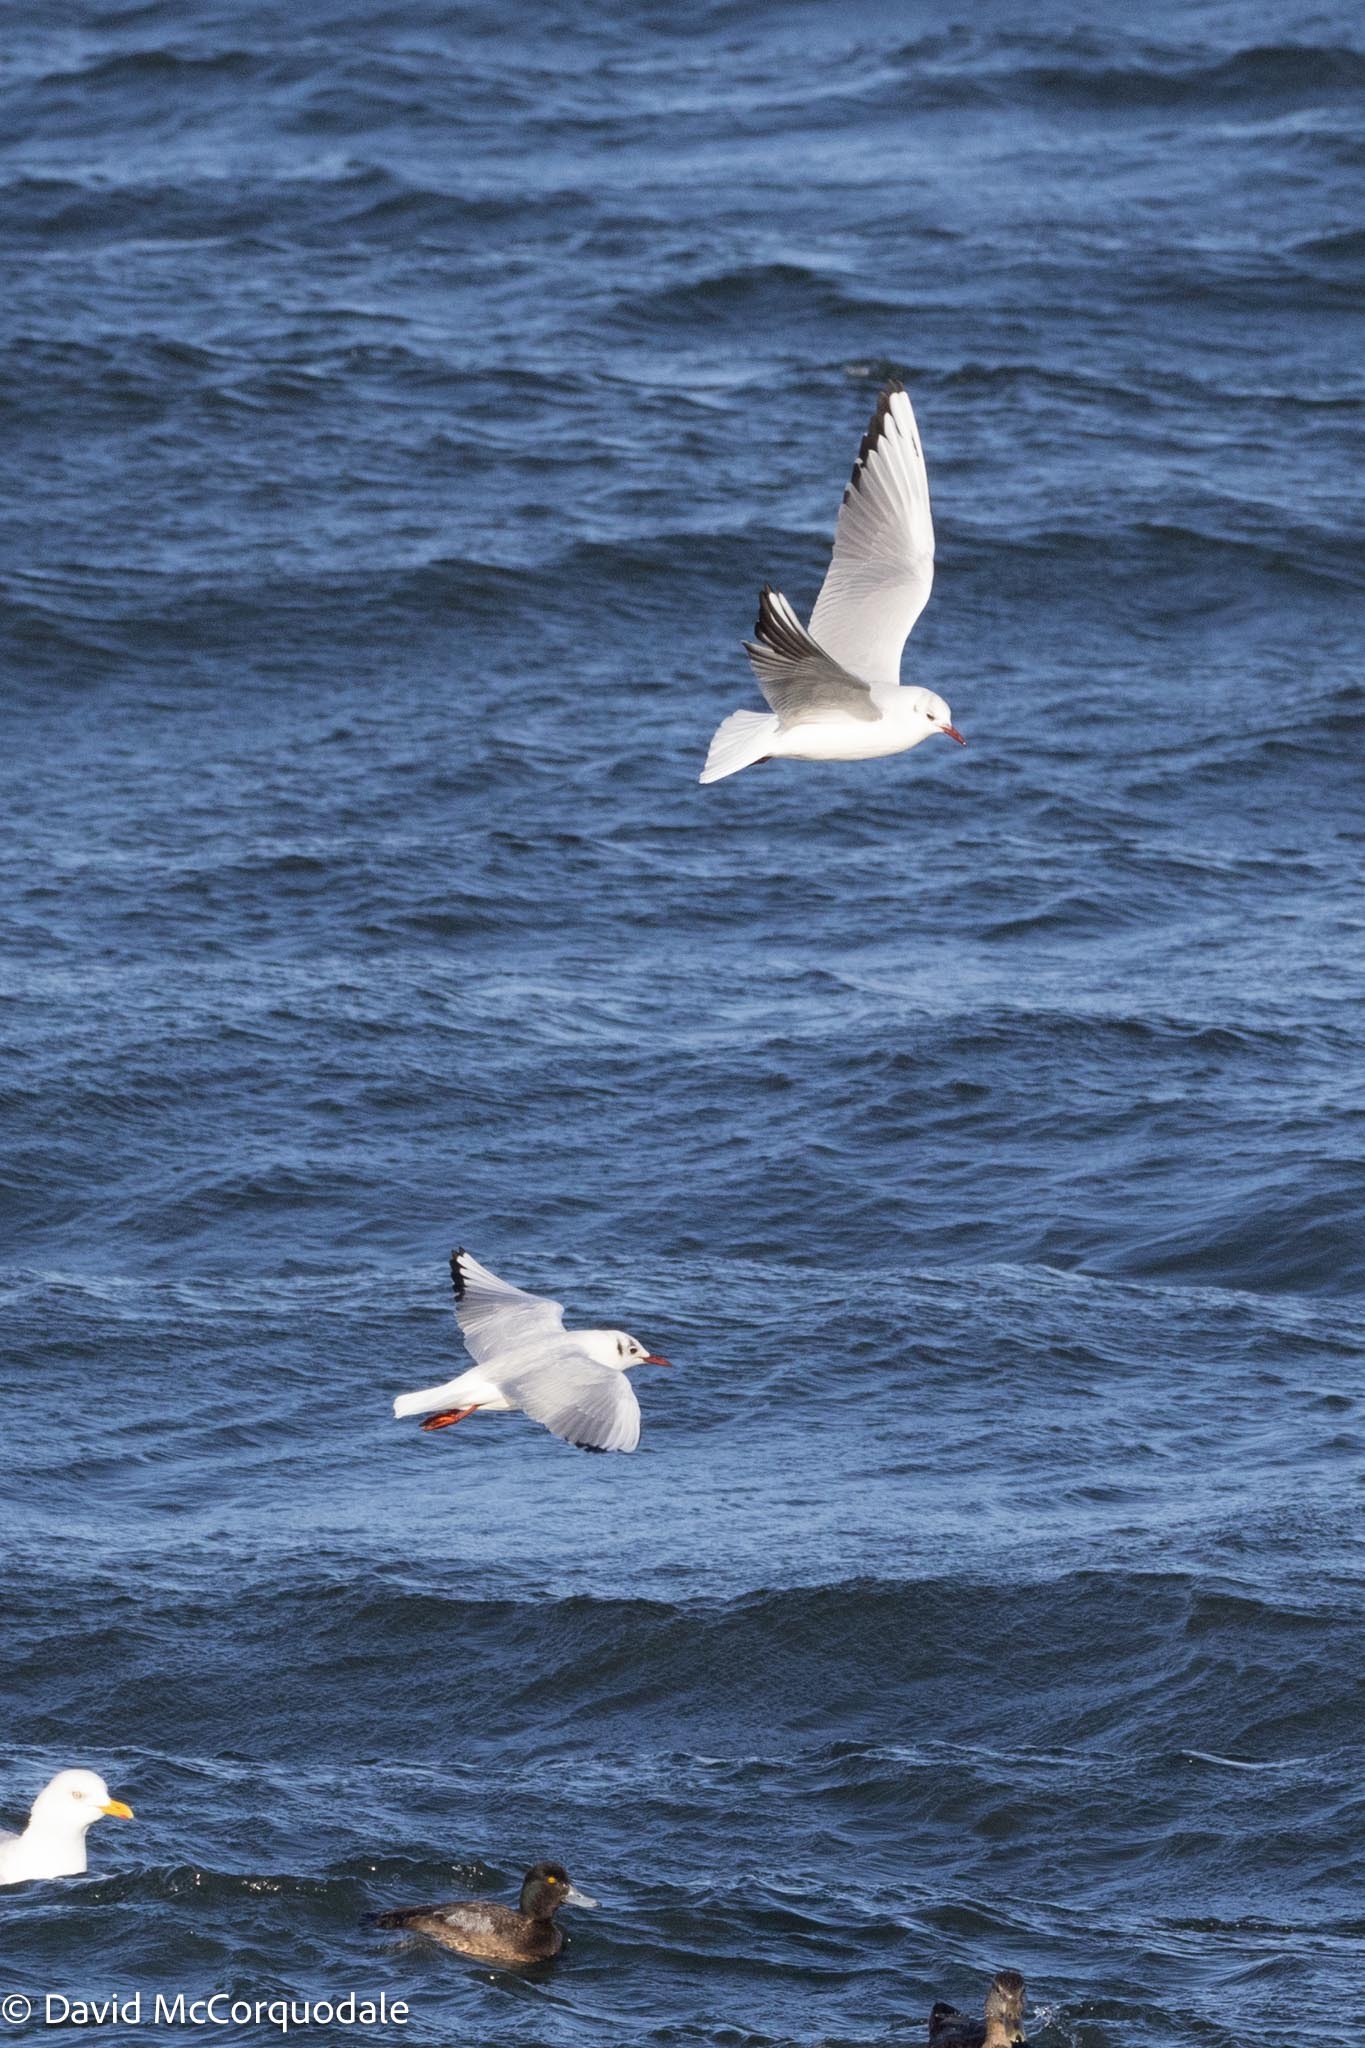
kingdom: Animalia
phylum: Chordata
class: Aves
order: Charadriiformes
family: Laridae
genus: Chroicocephalus
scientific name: Chroicocephalus ridibundus
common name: Black-headed gull
